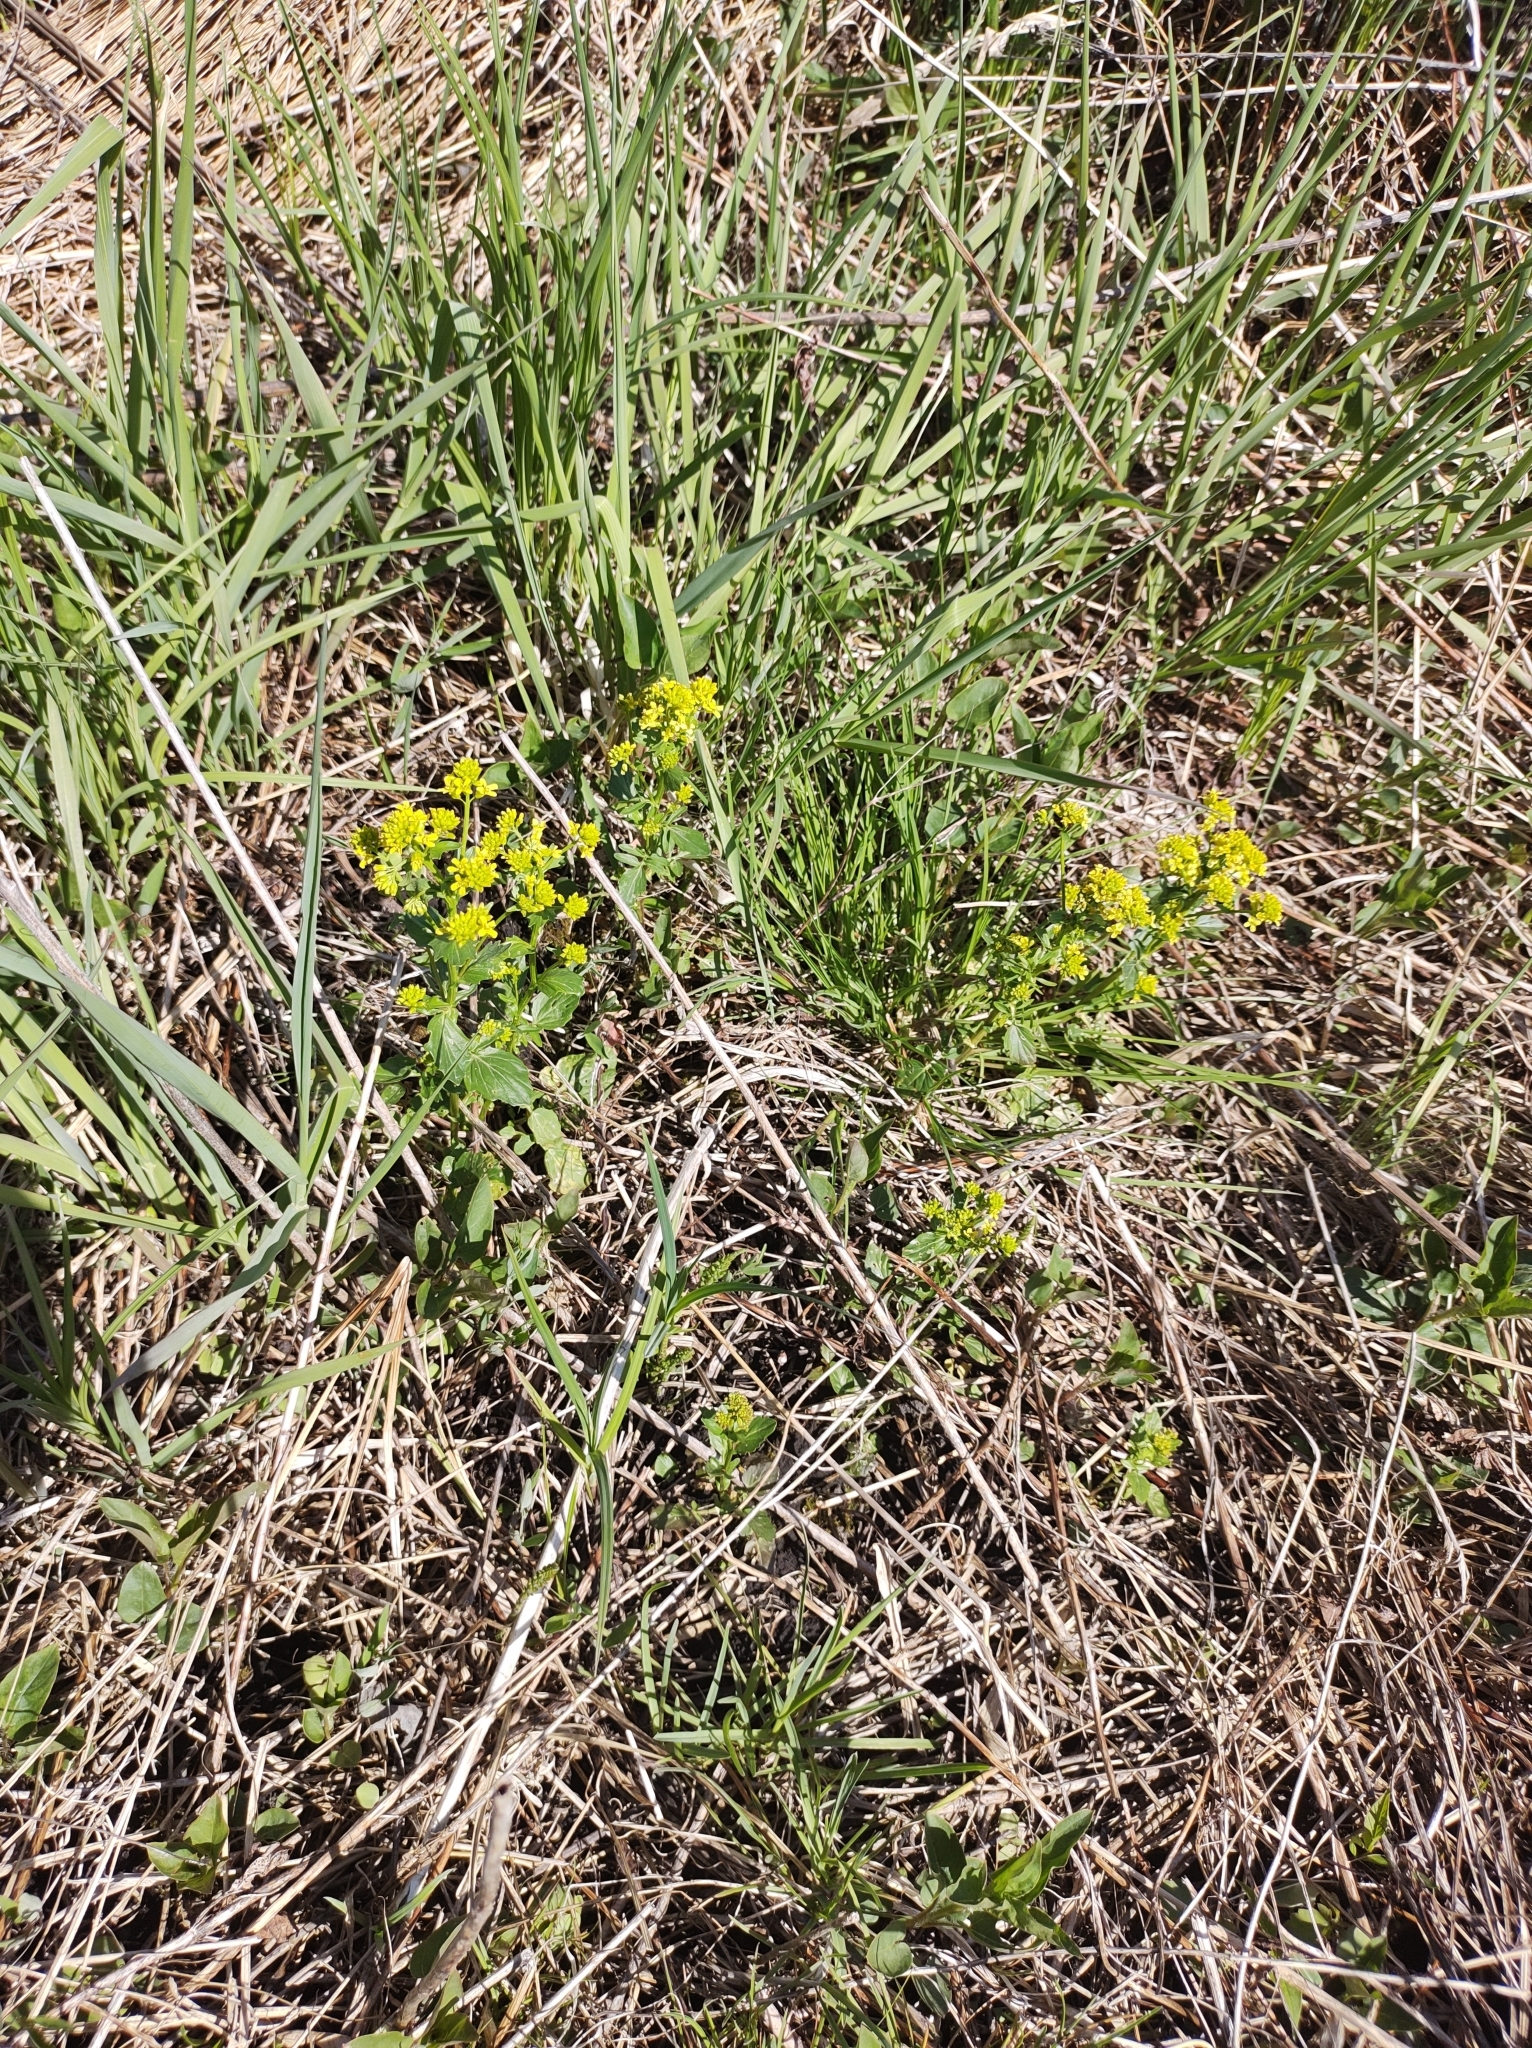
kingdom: Plantae
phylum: Tracheophyta
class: Magnoliopsida
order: Brassicales
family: Brassicaceae
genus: Barbarea
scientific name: Barbarea vulgaris
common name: Cressy-greens
